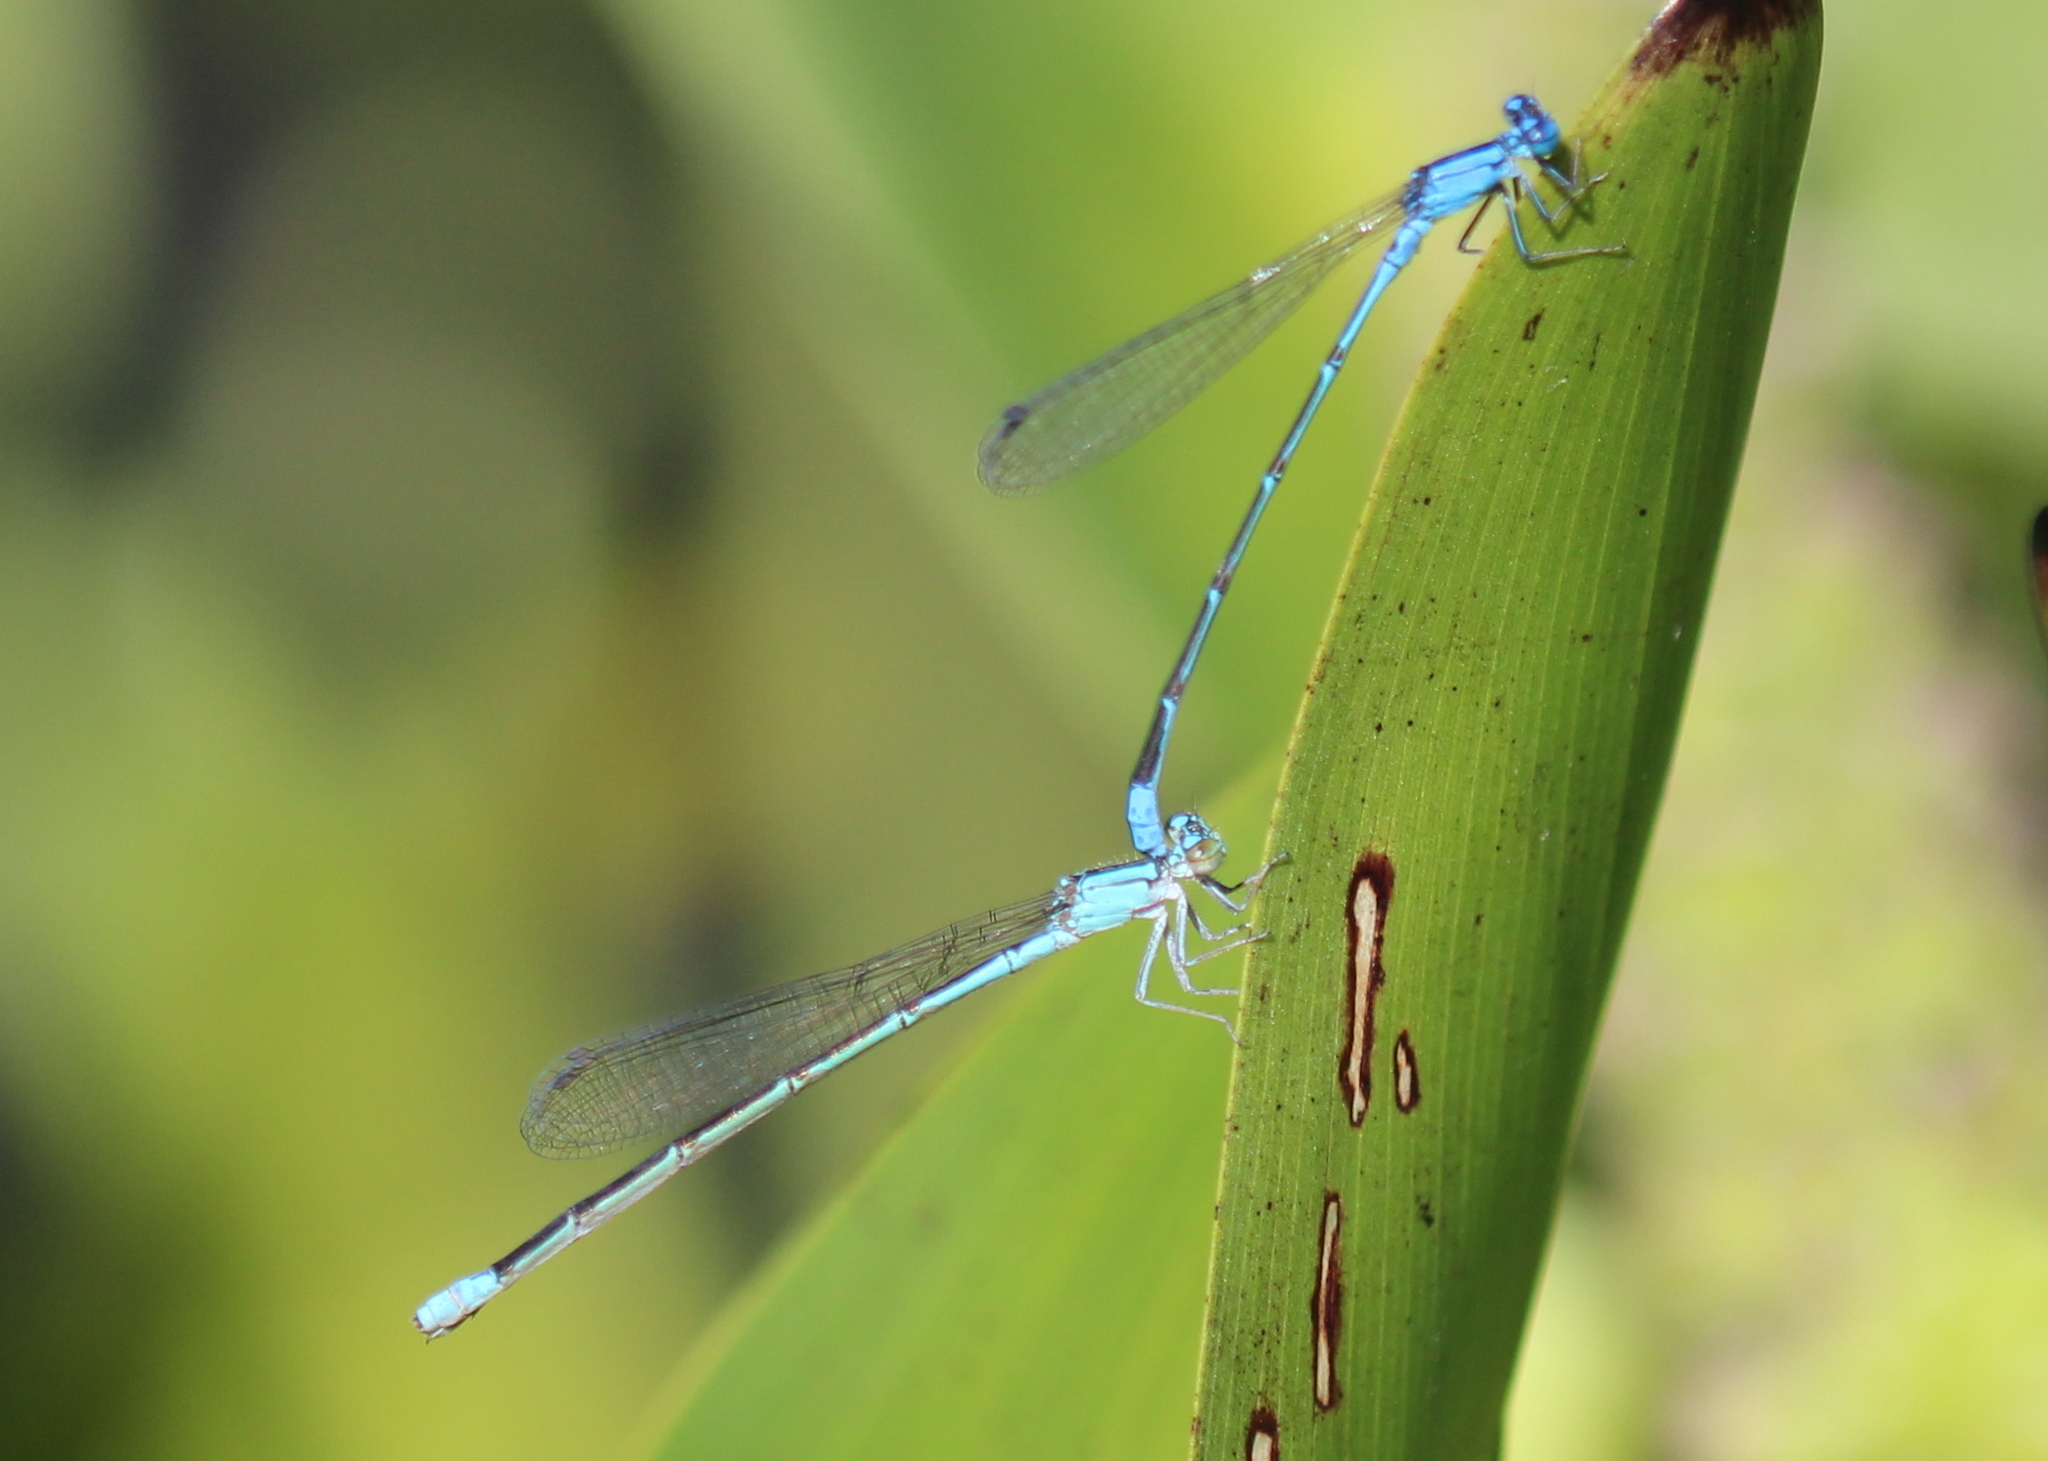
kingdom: Animalia
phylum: Arthropoda
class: Insecta
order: Odonata
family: Coenagrionidae
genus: Enallagma
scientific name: Enallagma traviatum
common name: Slender bluet
